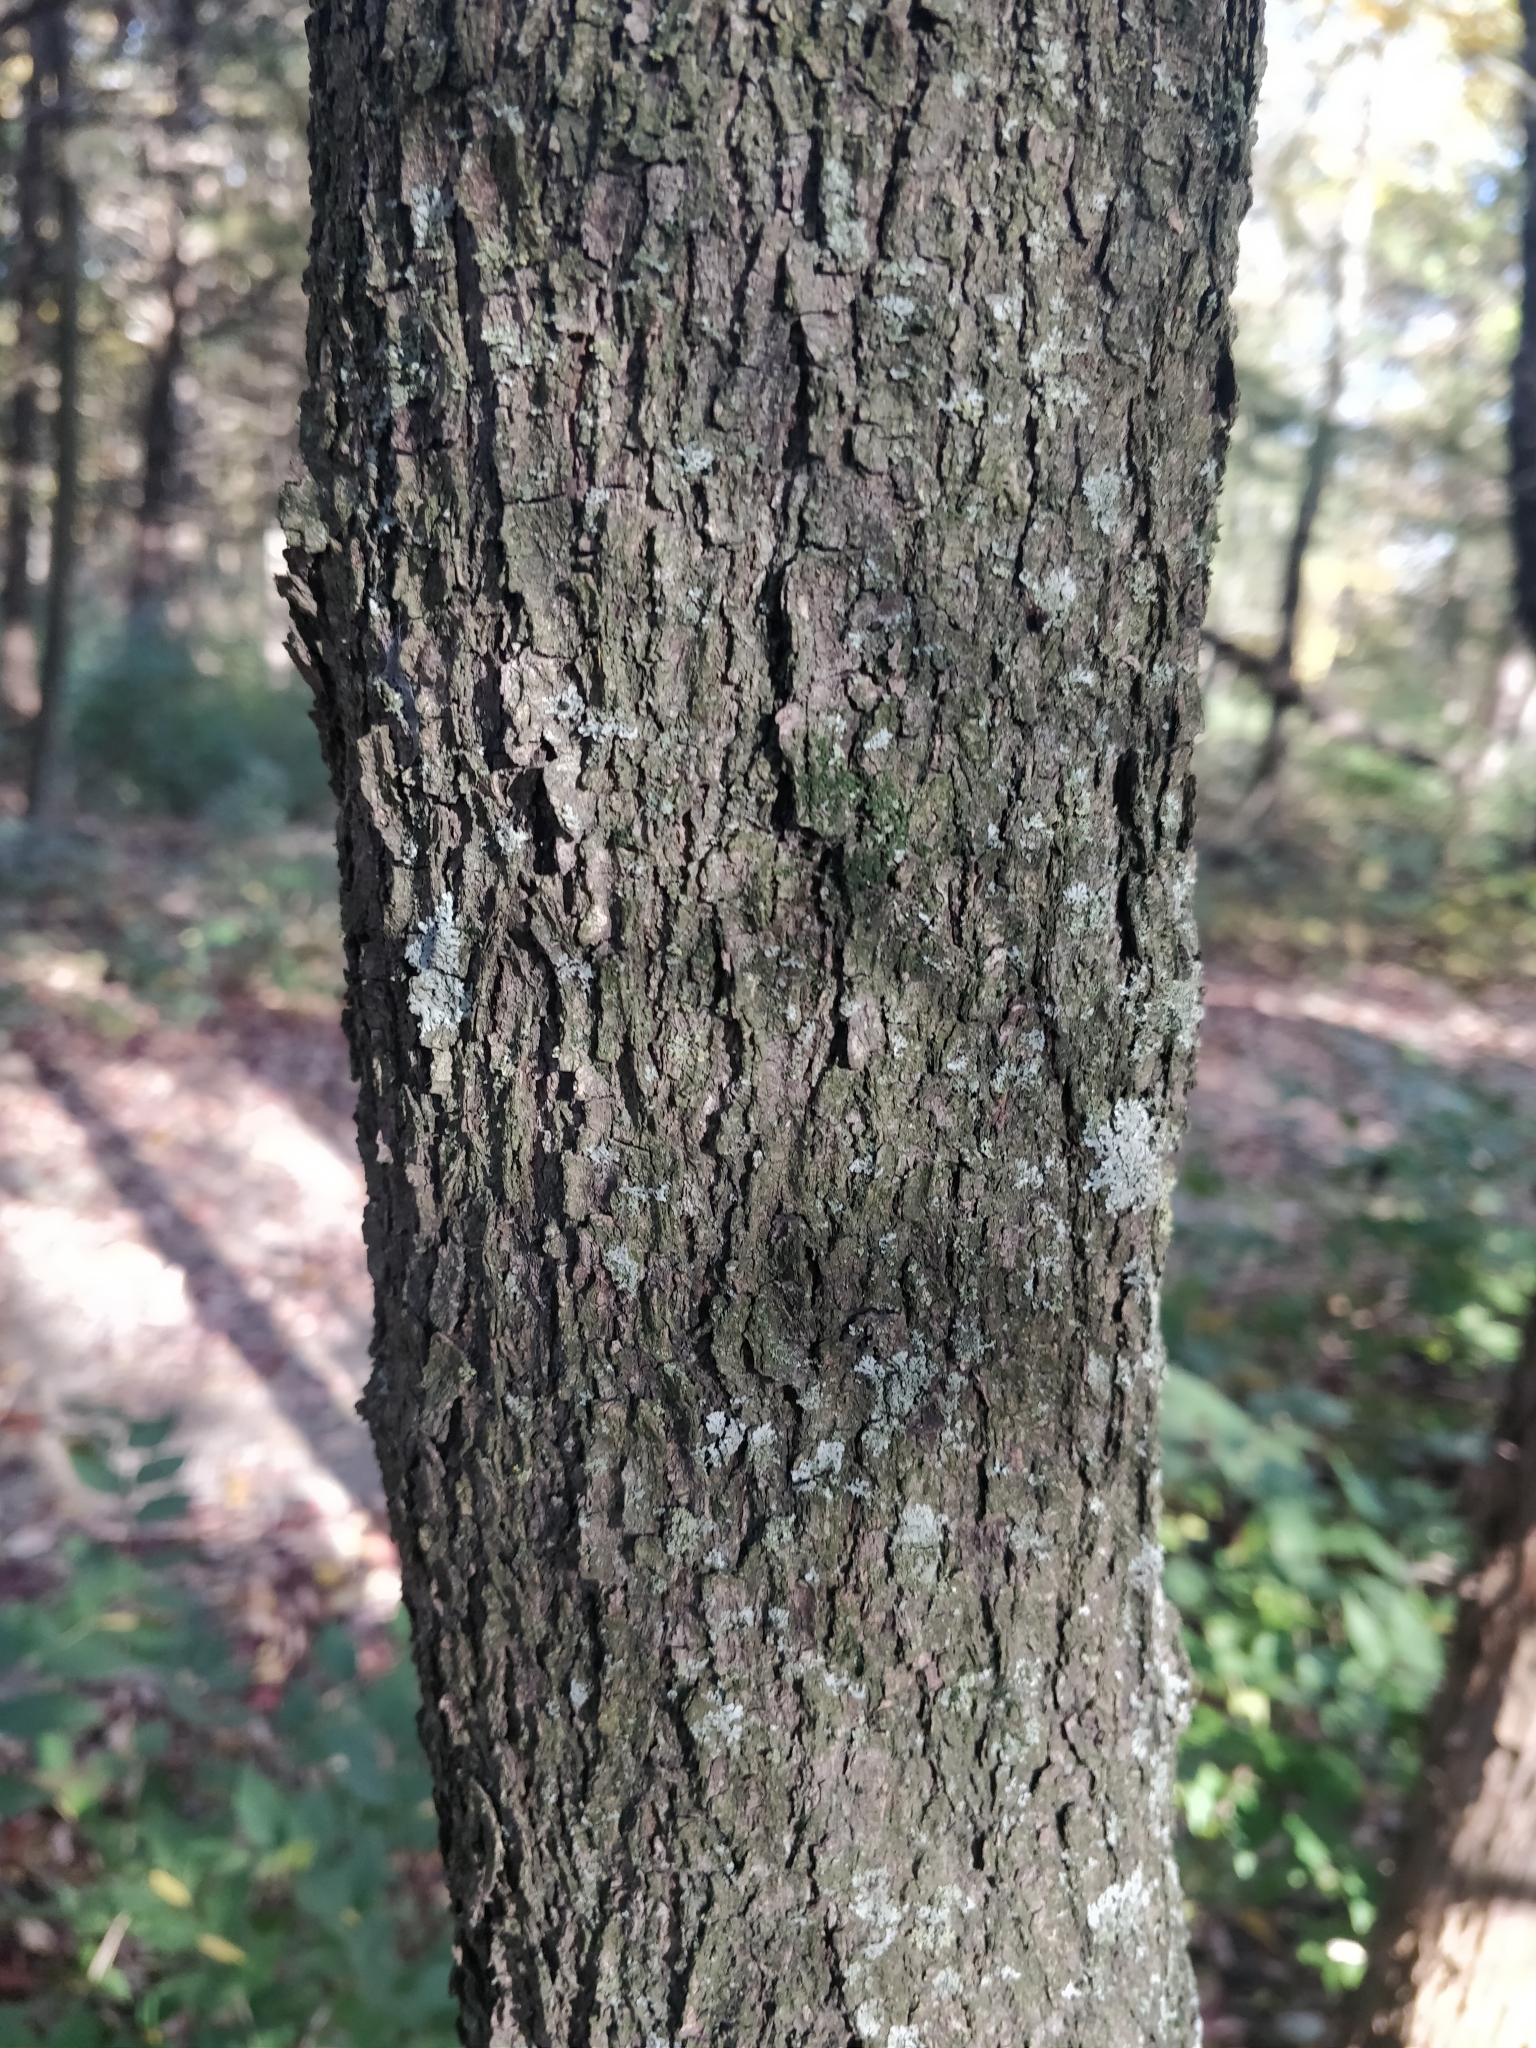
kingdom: Plantae
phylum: Tracheophyta
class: Magnoliopsida
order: Fabales
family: Fabaceae
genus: Cercis
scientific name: Cercis canadensis
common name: Eastern redbud
